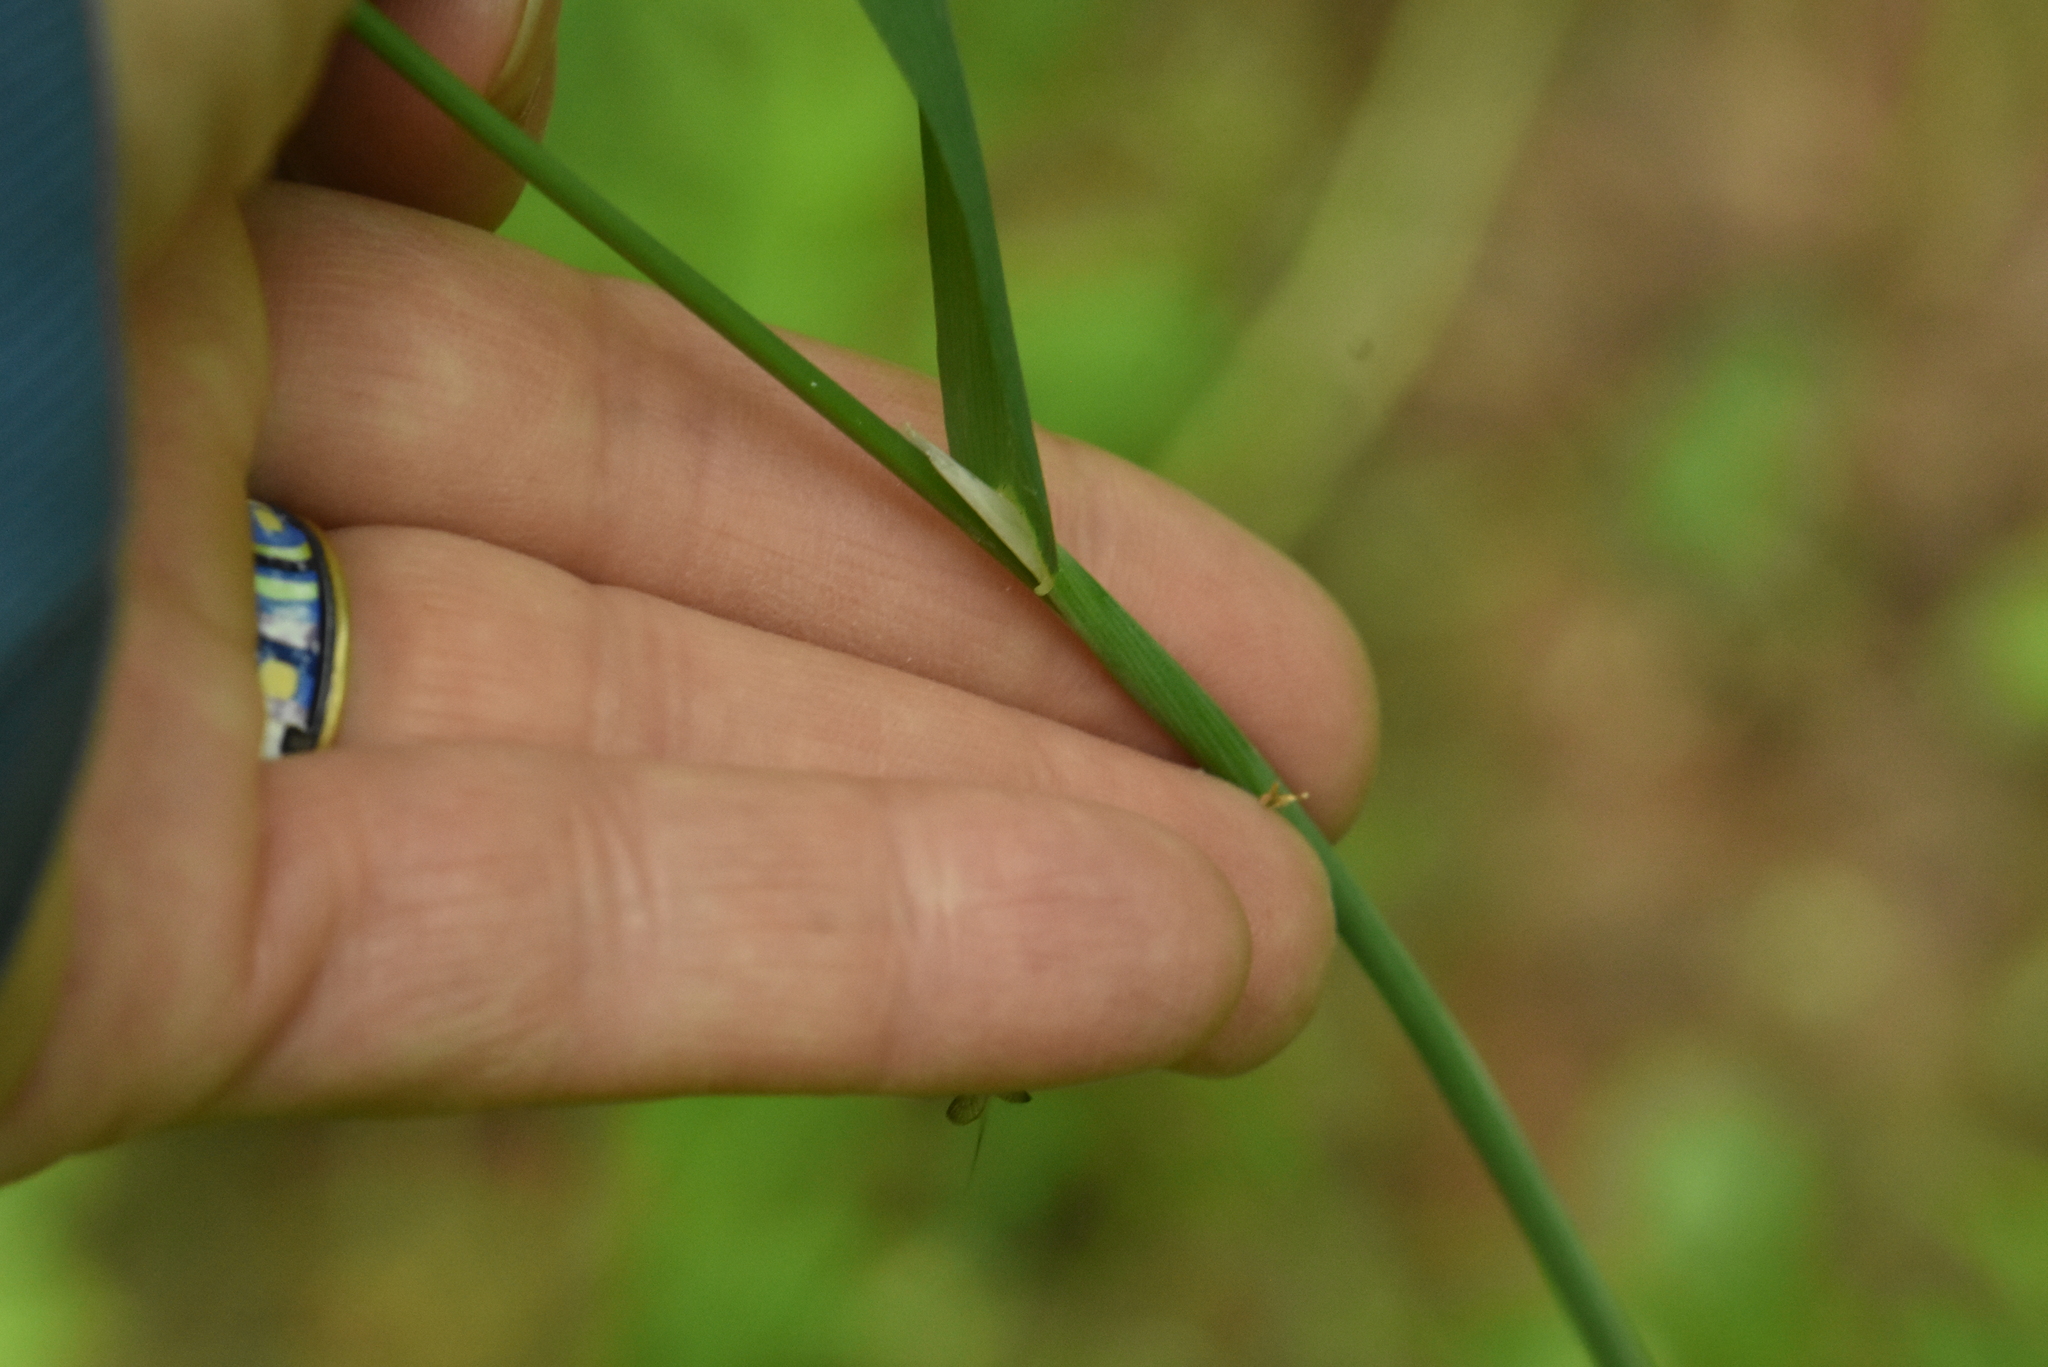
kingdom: Plantae
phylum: Tracheophyta
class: Liliopsida
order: Poales
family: Poaceae
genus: Milium
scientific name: Milium effusum
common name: Wood millet
